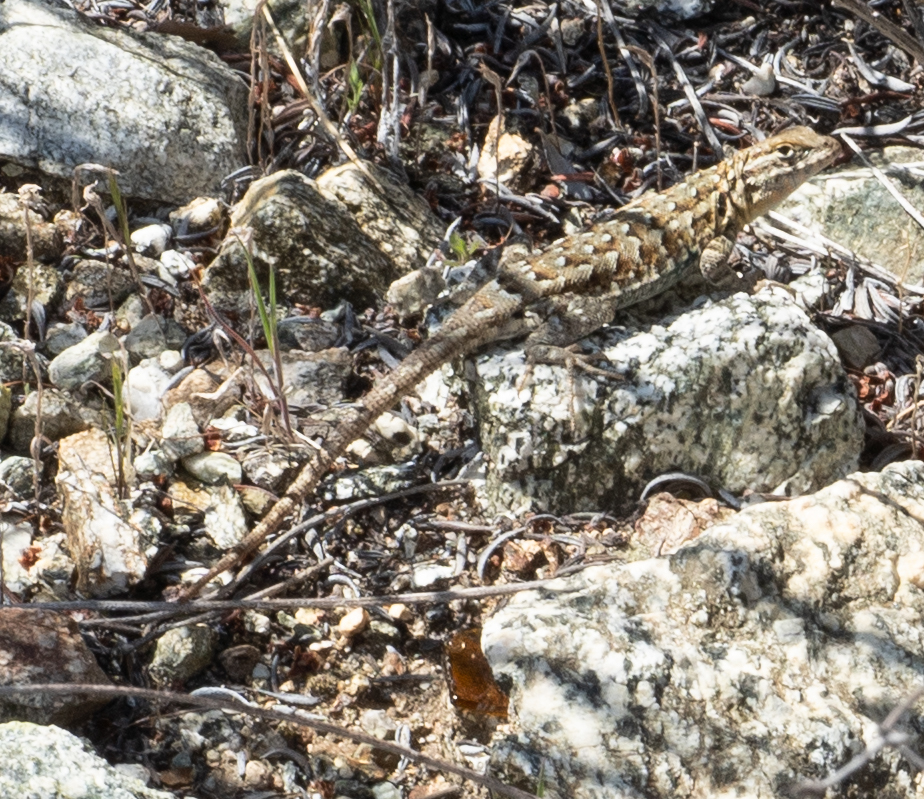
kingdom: Animalia
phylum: Chordata
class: Squamata
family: Phrynosomatidae
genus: Uta
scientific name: Uta stansburiana
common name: Side-blotched lizard
